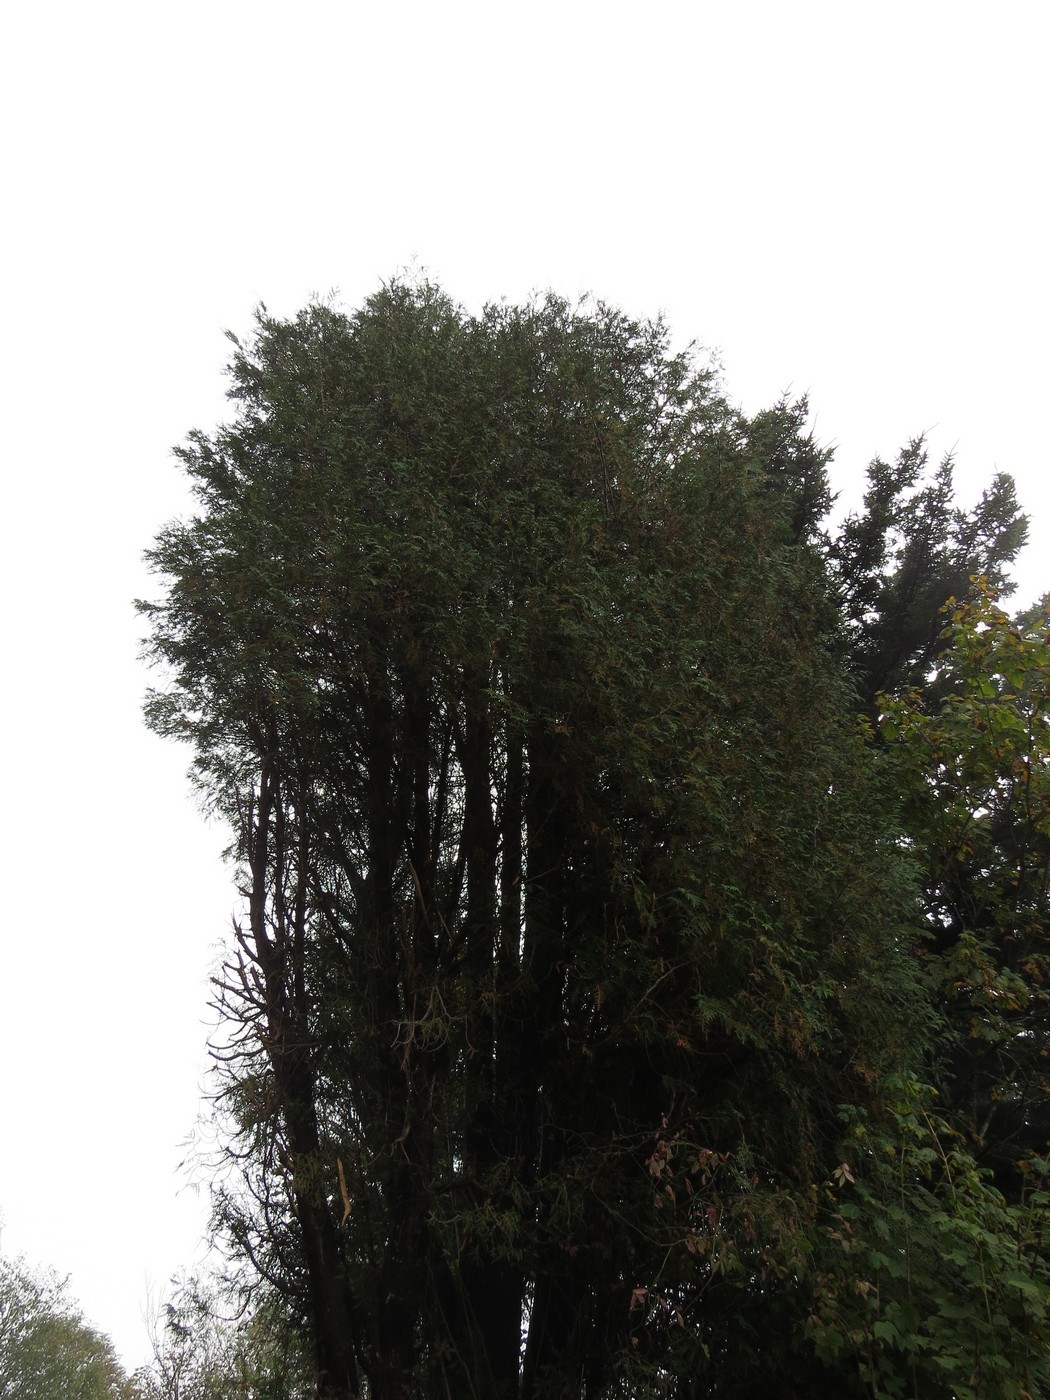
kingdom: Plantae
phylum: Tracheophyta
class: Pinopsida
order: Pinales
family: Cupressaceae
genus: Thuja
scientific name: Thuja occidentalis
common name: Northern white-cedar
